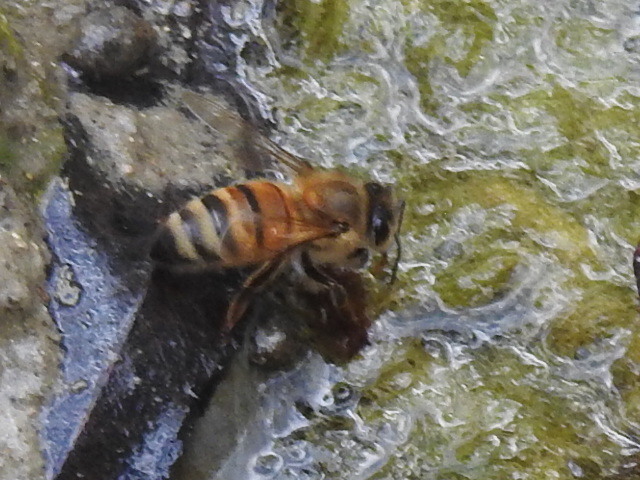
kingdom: Animalia
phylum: Arthropoda
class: Insecta
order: Hymenoptera
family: Apidae
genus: Apis
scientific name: Apis mellifera
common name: Honey bee
